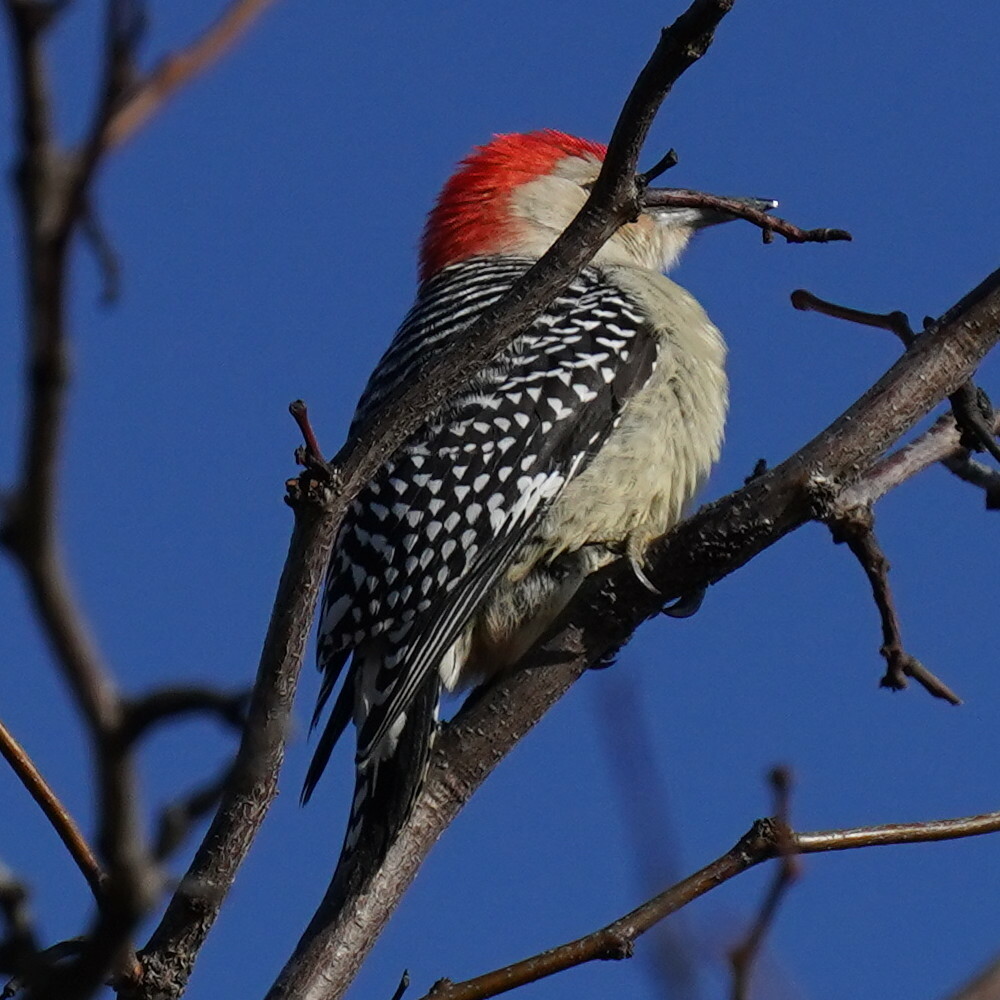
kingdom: Animalia
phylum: Chordata
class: Aves
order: Piciformes
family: Picidae
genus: Melanerpes
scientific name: Melanerpes carolinus
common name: Red-bellied woodpecker
